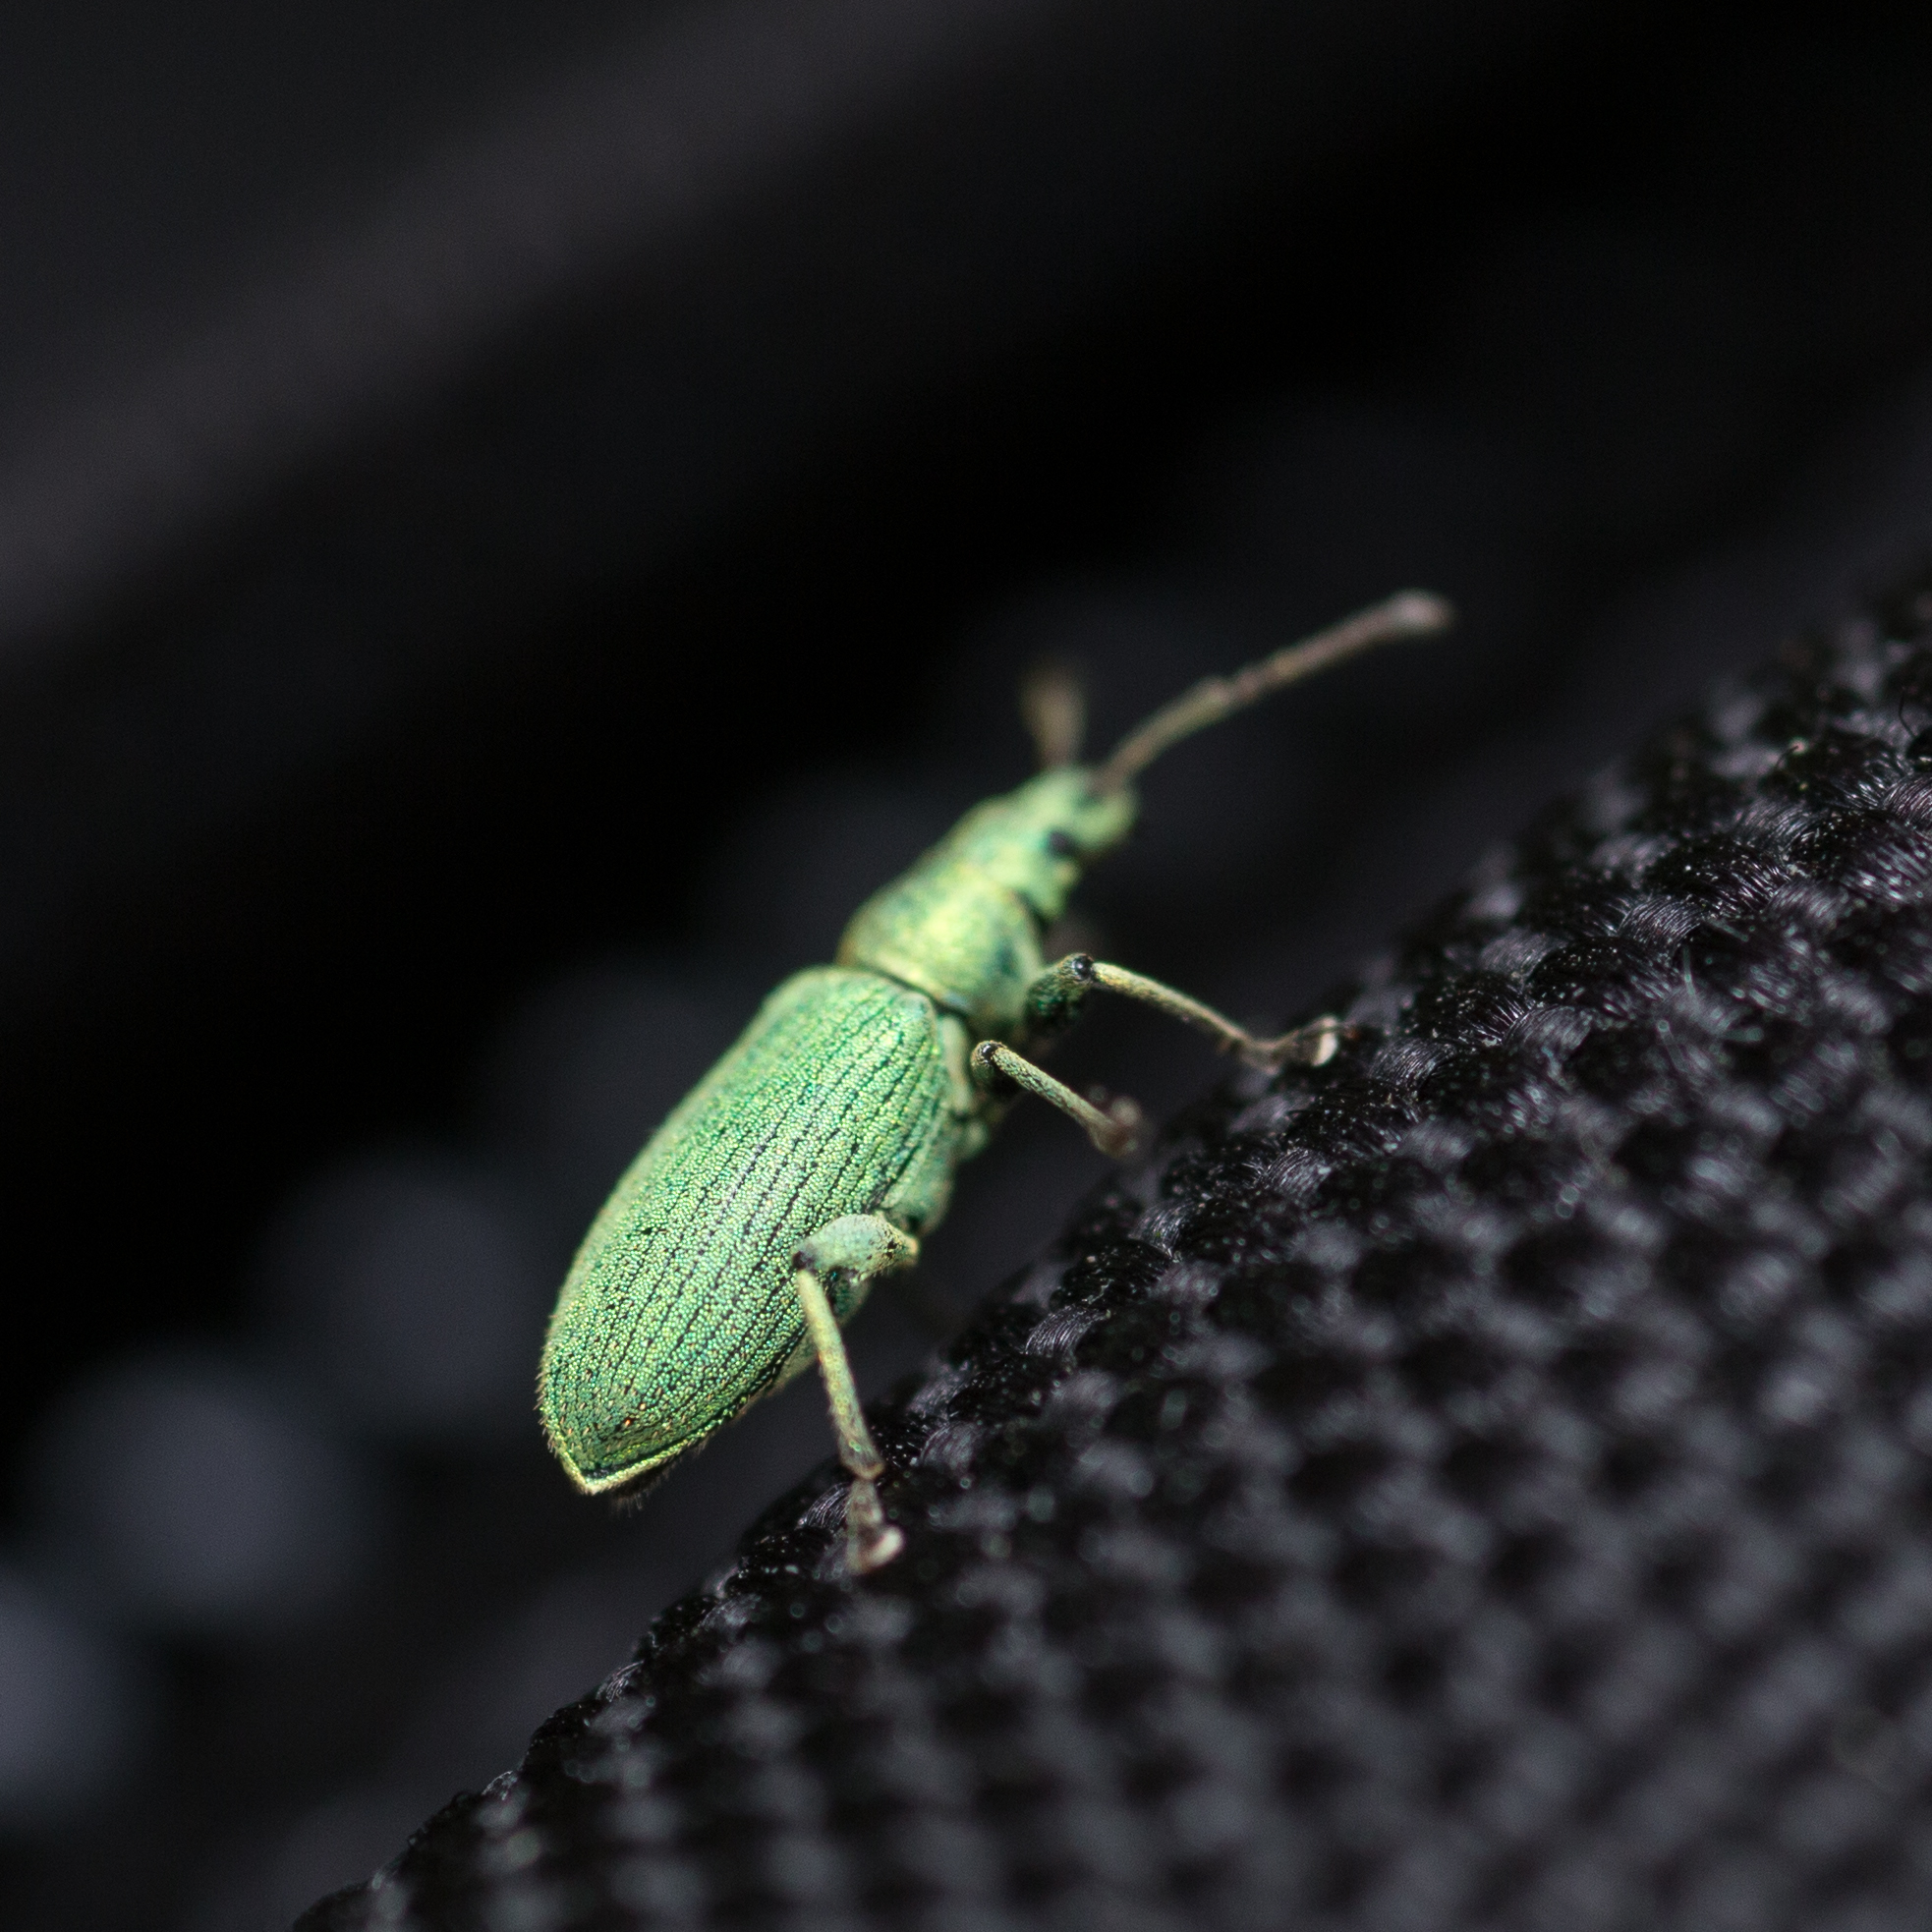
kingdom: Animalia
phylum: Arthropoda
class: Insecta
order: Coleoptera
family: Curculionidae
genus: Phyllobius
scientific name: Phyllobius maculicornis
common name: Green leaf weevil
